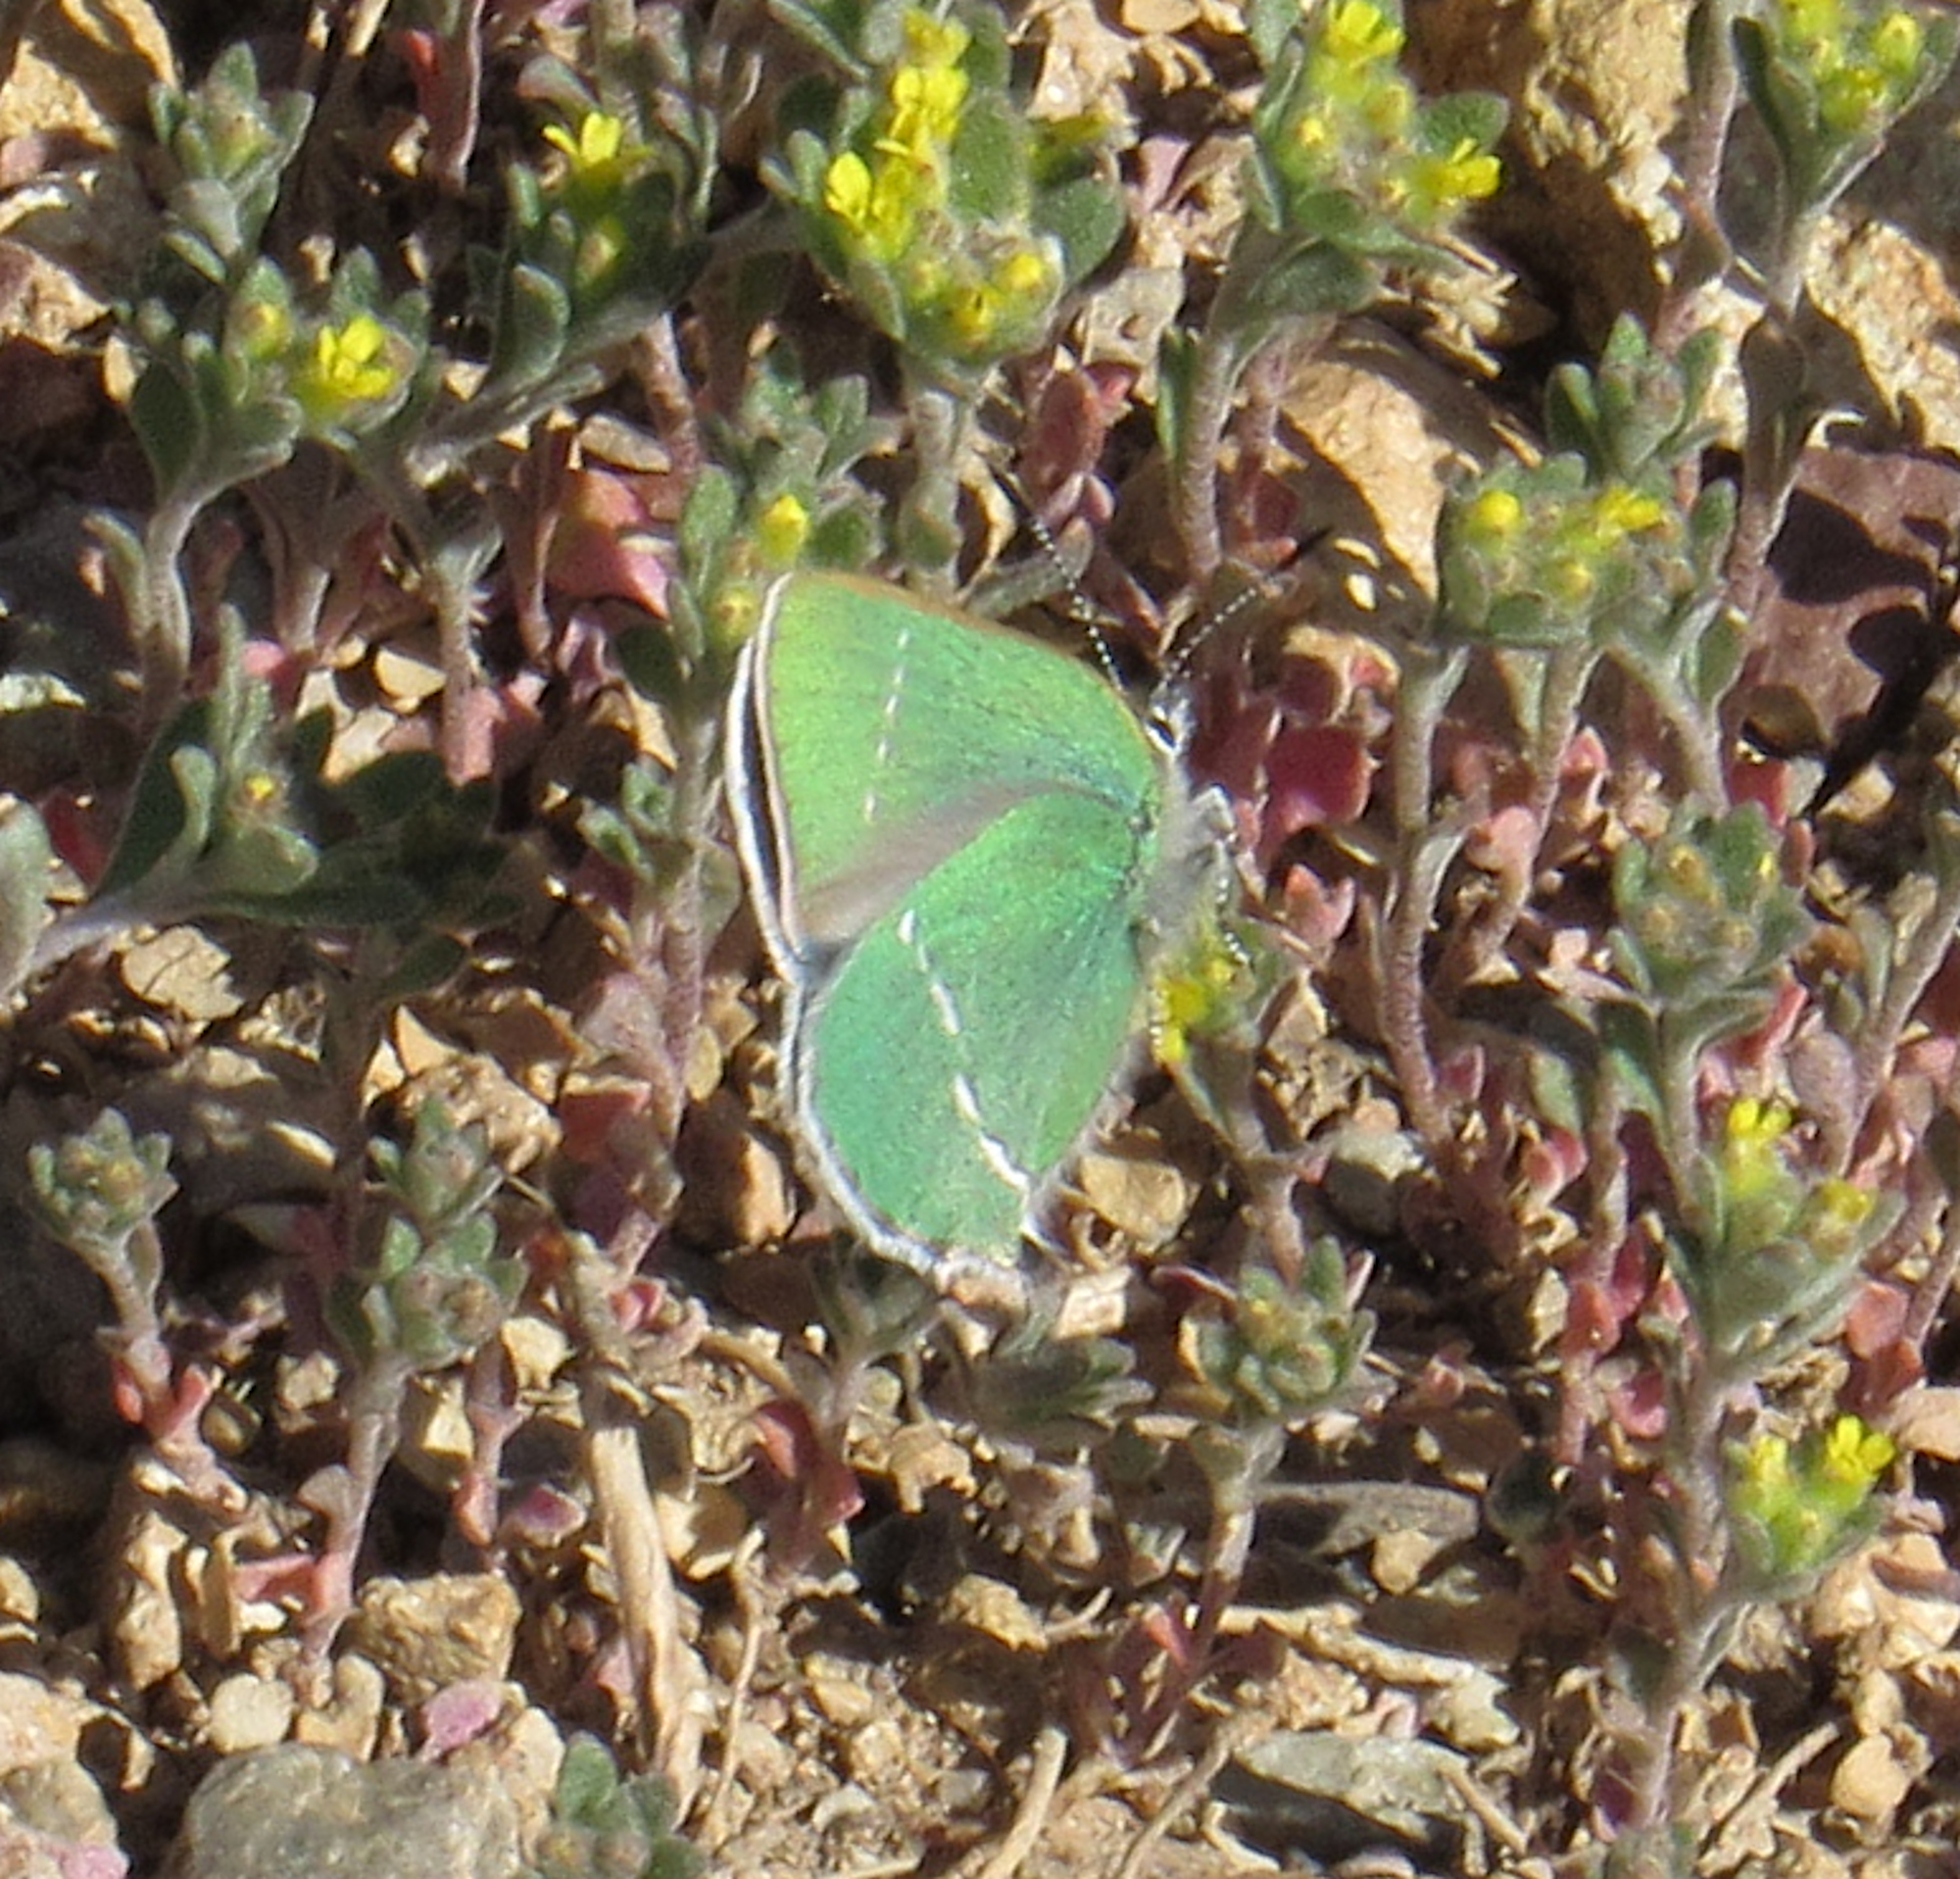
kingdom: Animalia
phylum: Arthropoda
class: Insecta
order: Lepidoptera
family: Lycaenidae
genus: Thecla
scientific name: Thecla sheridanii
